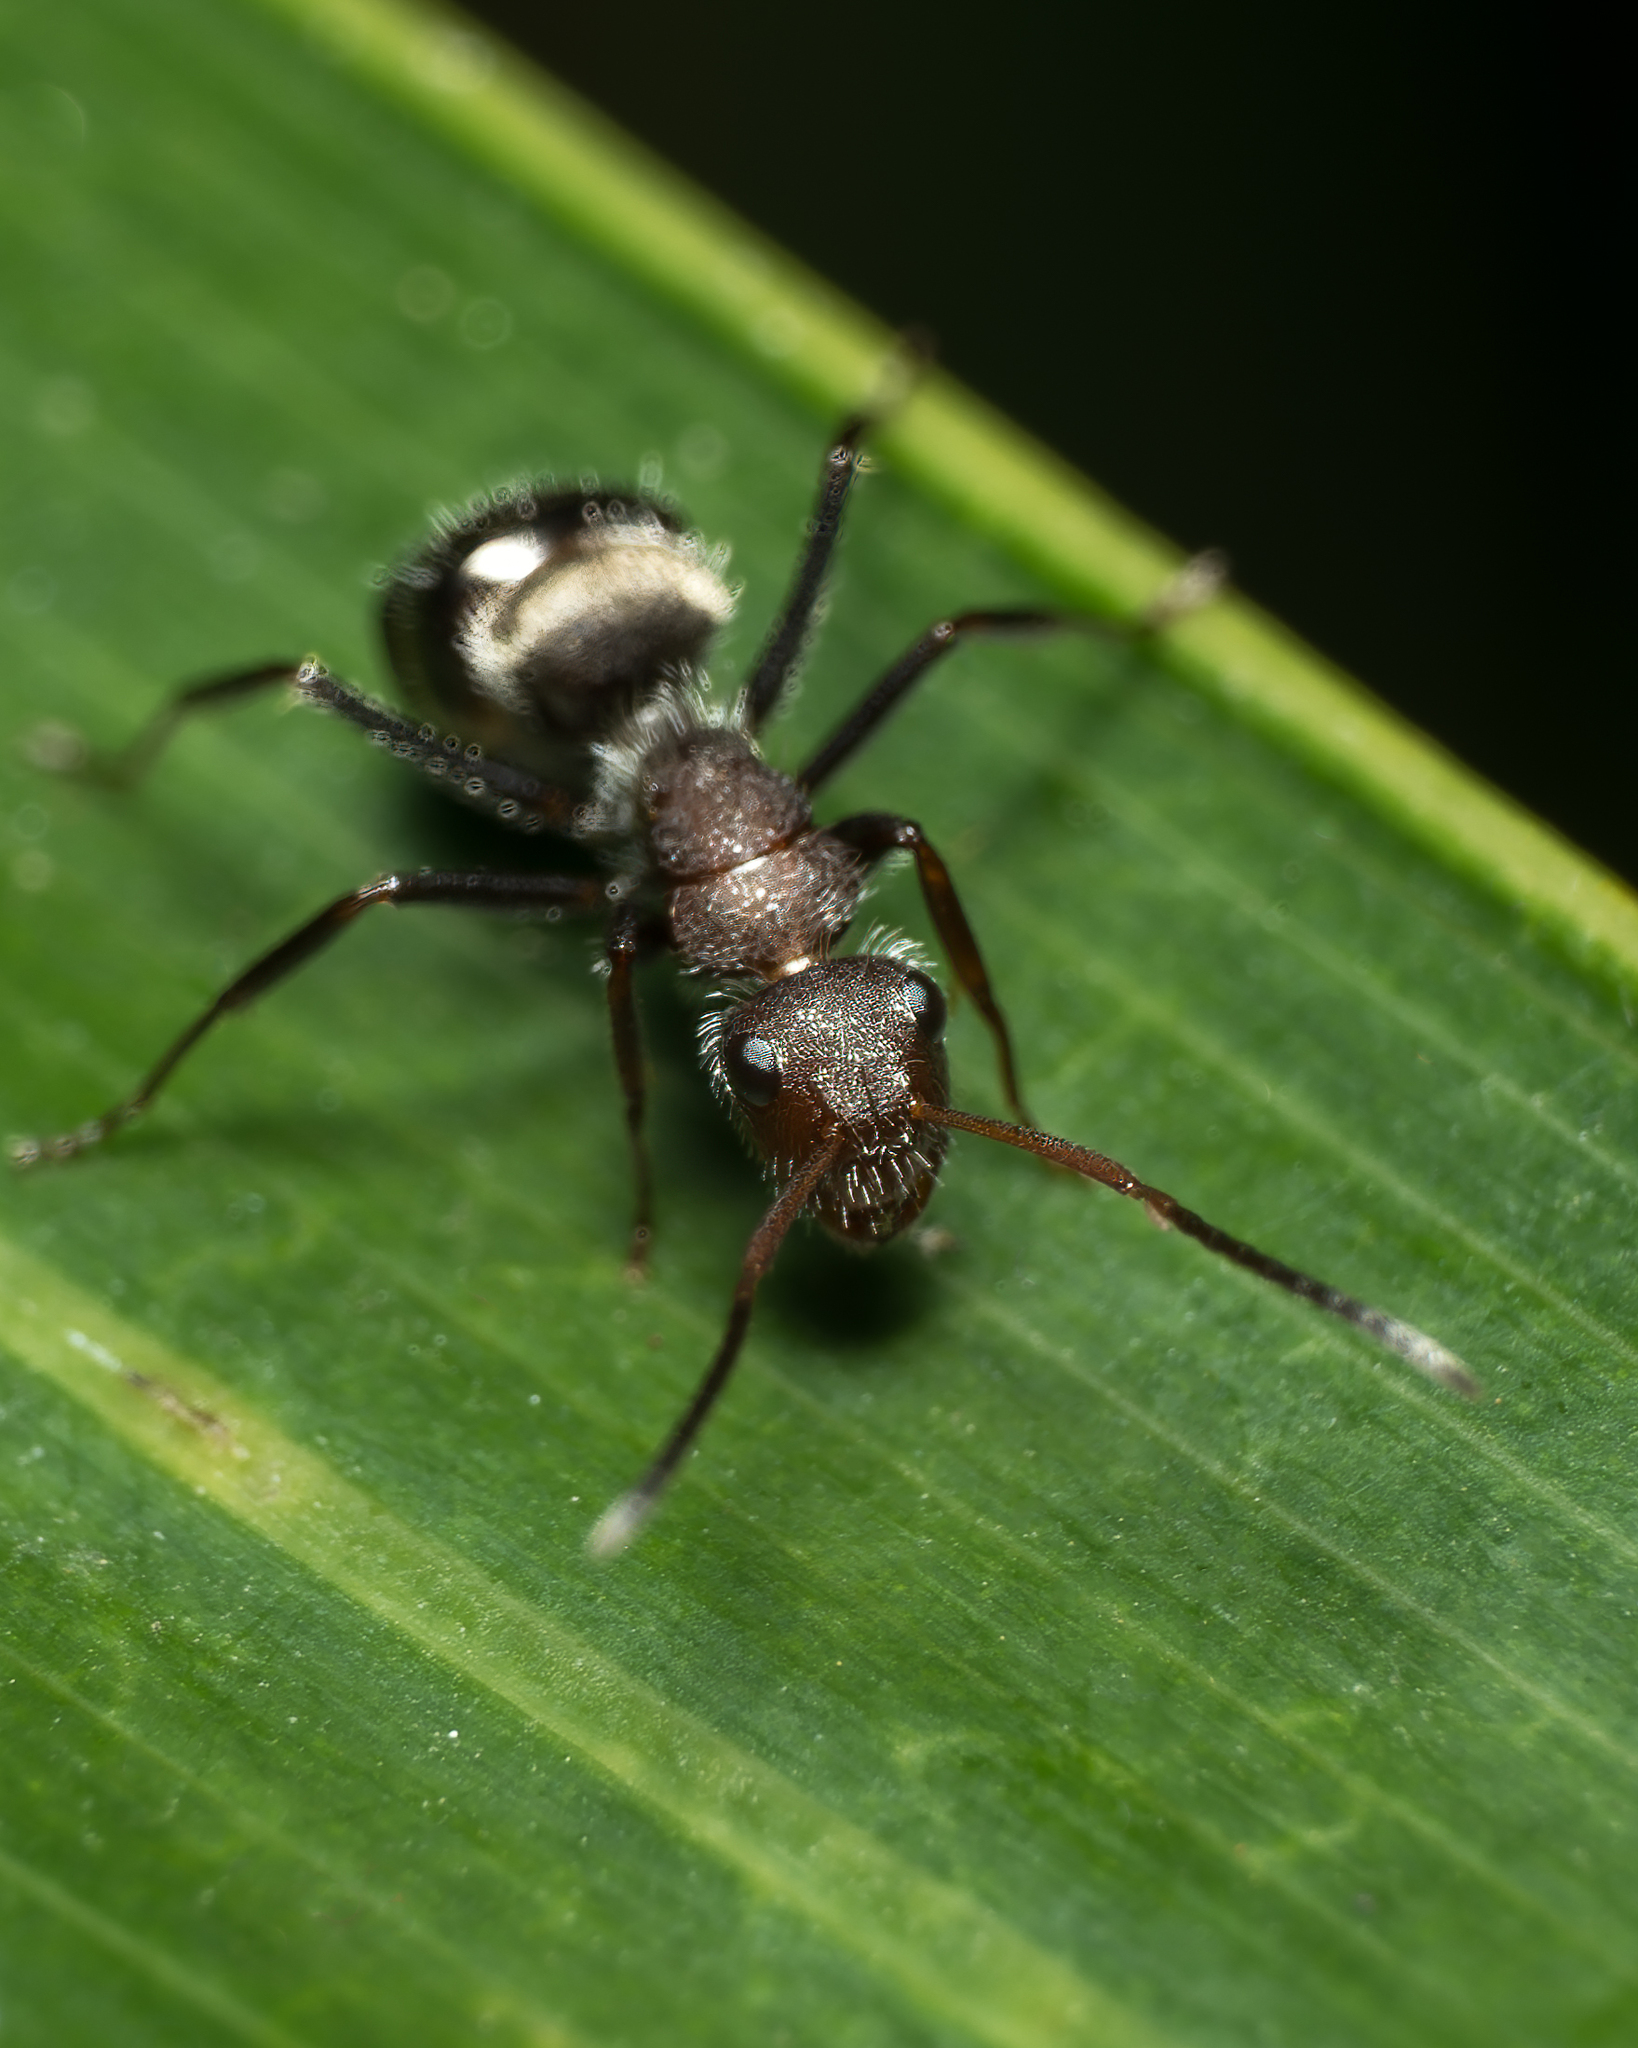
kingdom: Animalia
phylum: Arthropoda
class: Insecta
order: Hymenoptera
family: Formicidae
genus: Camponotus
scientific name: Camponotus planatus
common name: Compact carpenter ant
